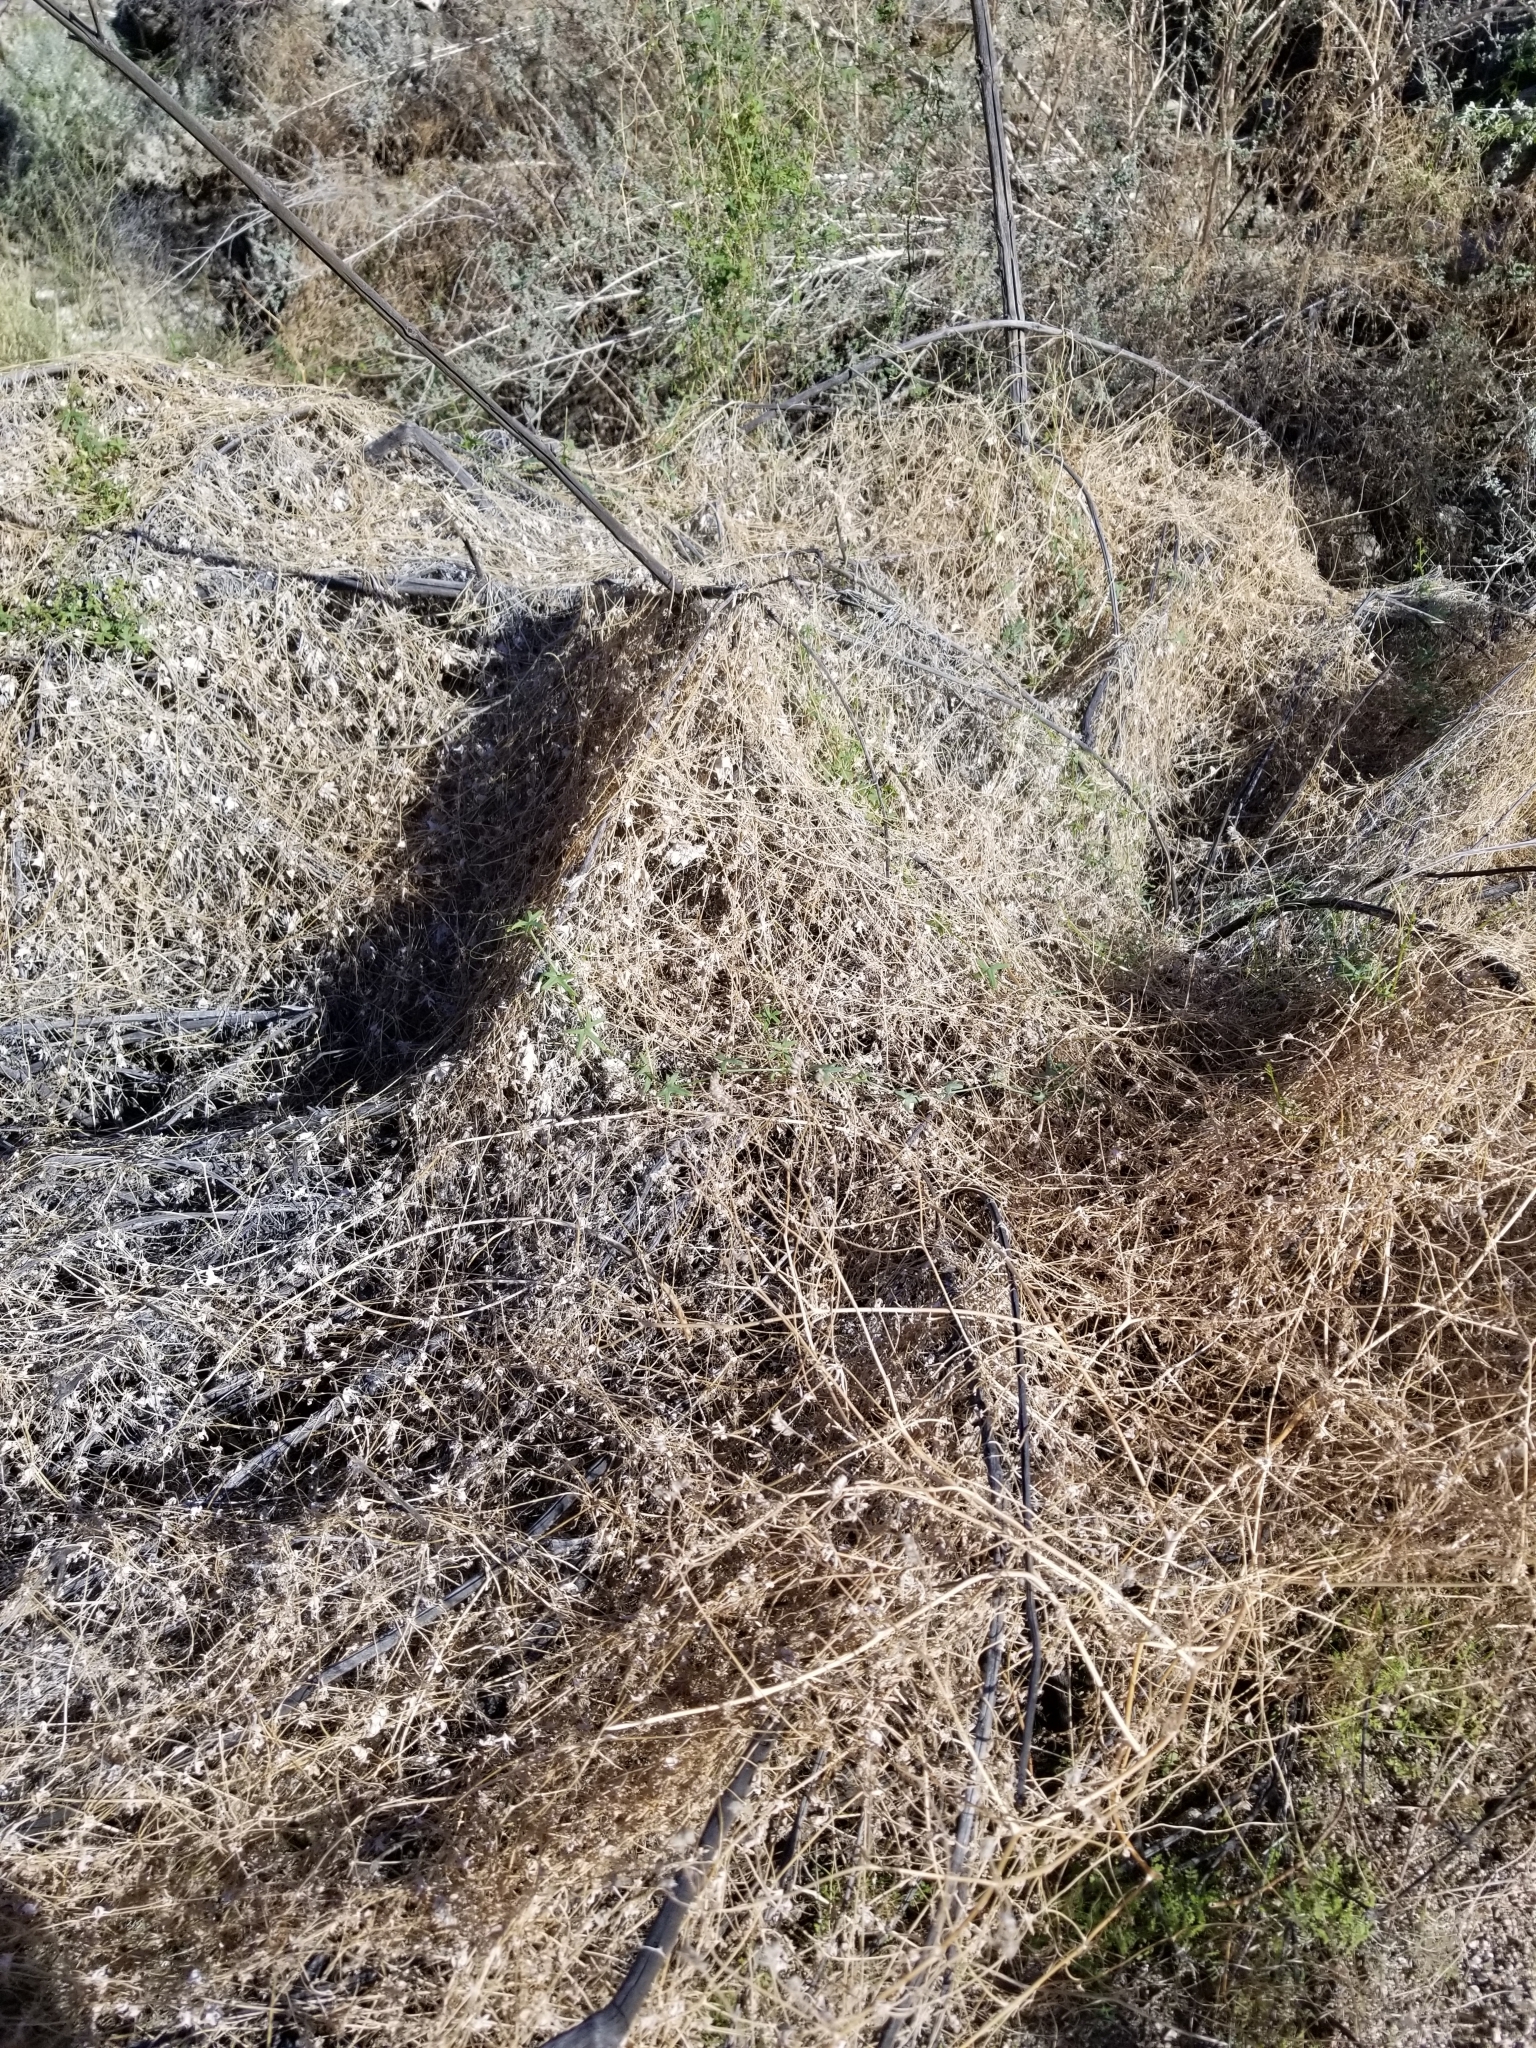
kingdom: Plantae
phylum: Tracheophyta
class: Magnoliopsida
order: Cucurbitales
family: Cucurbitaceae
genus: Echinopepon
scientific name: Echinopepon bigelovii
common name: Desert starvine
